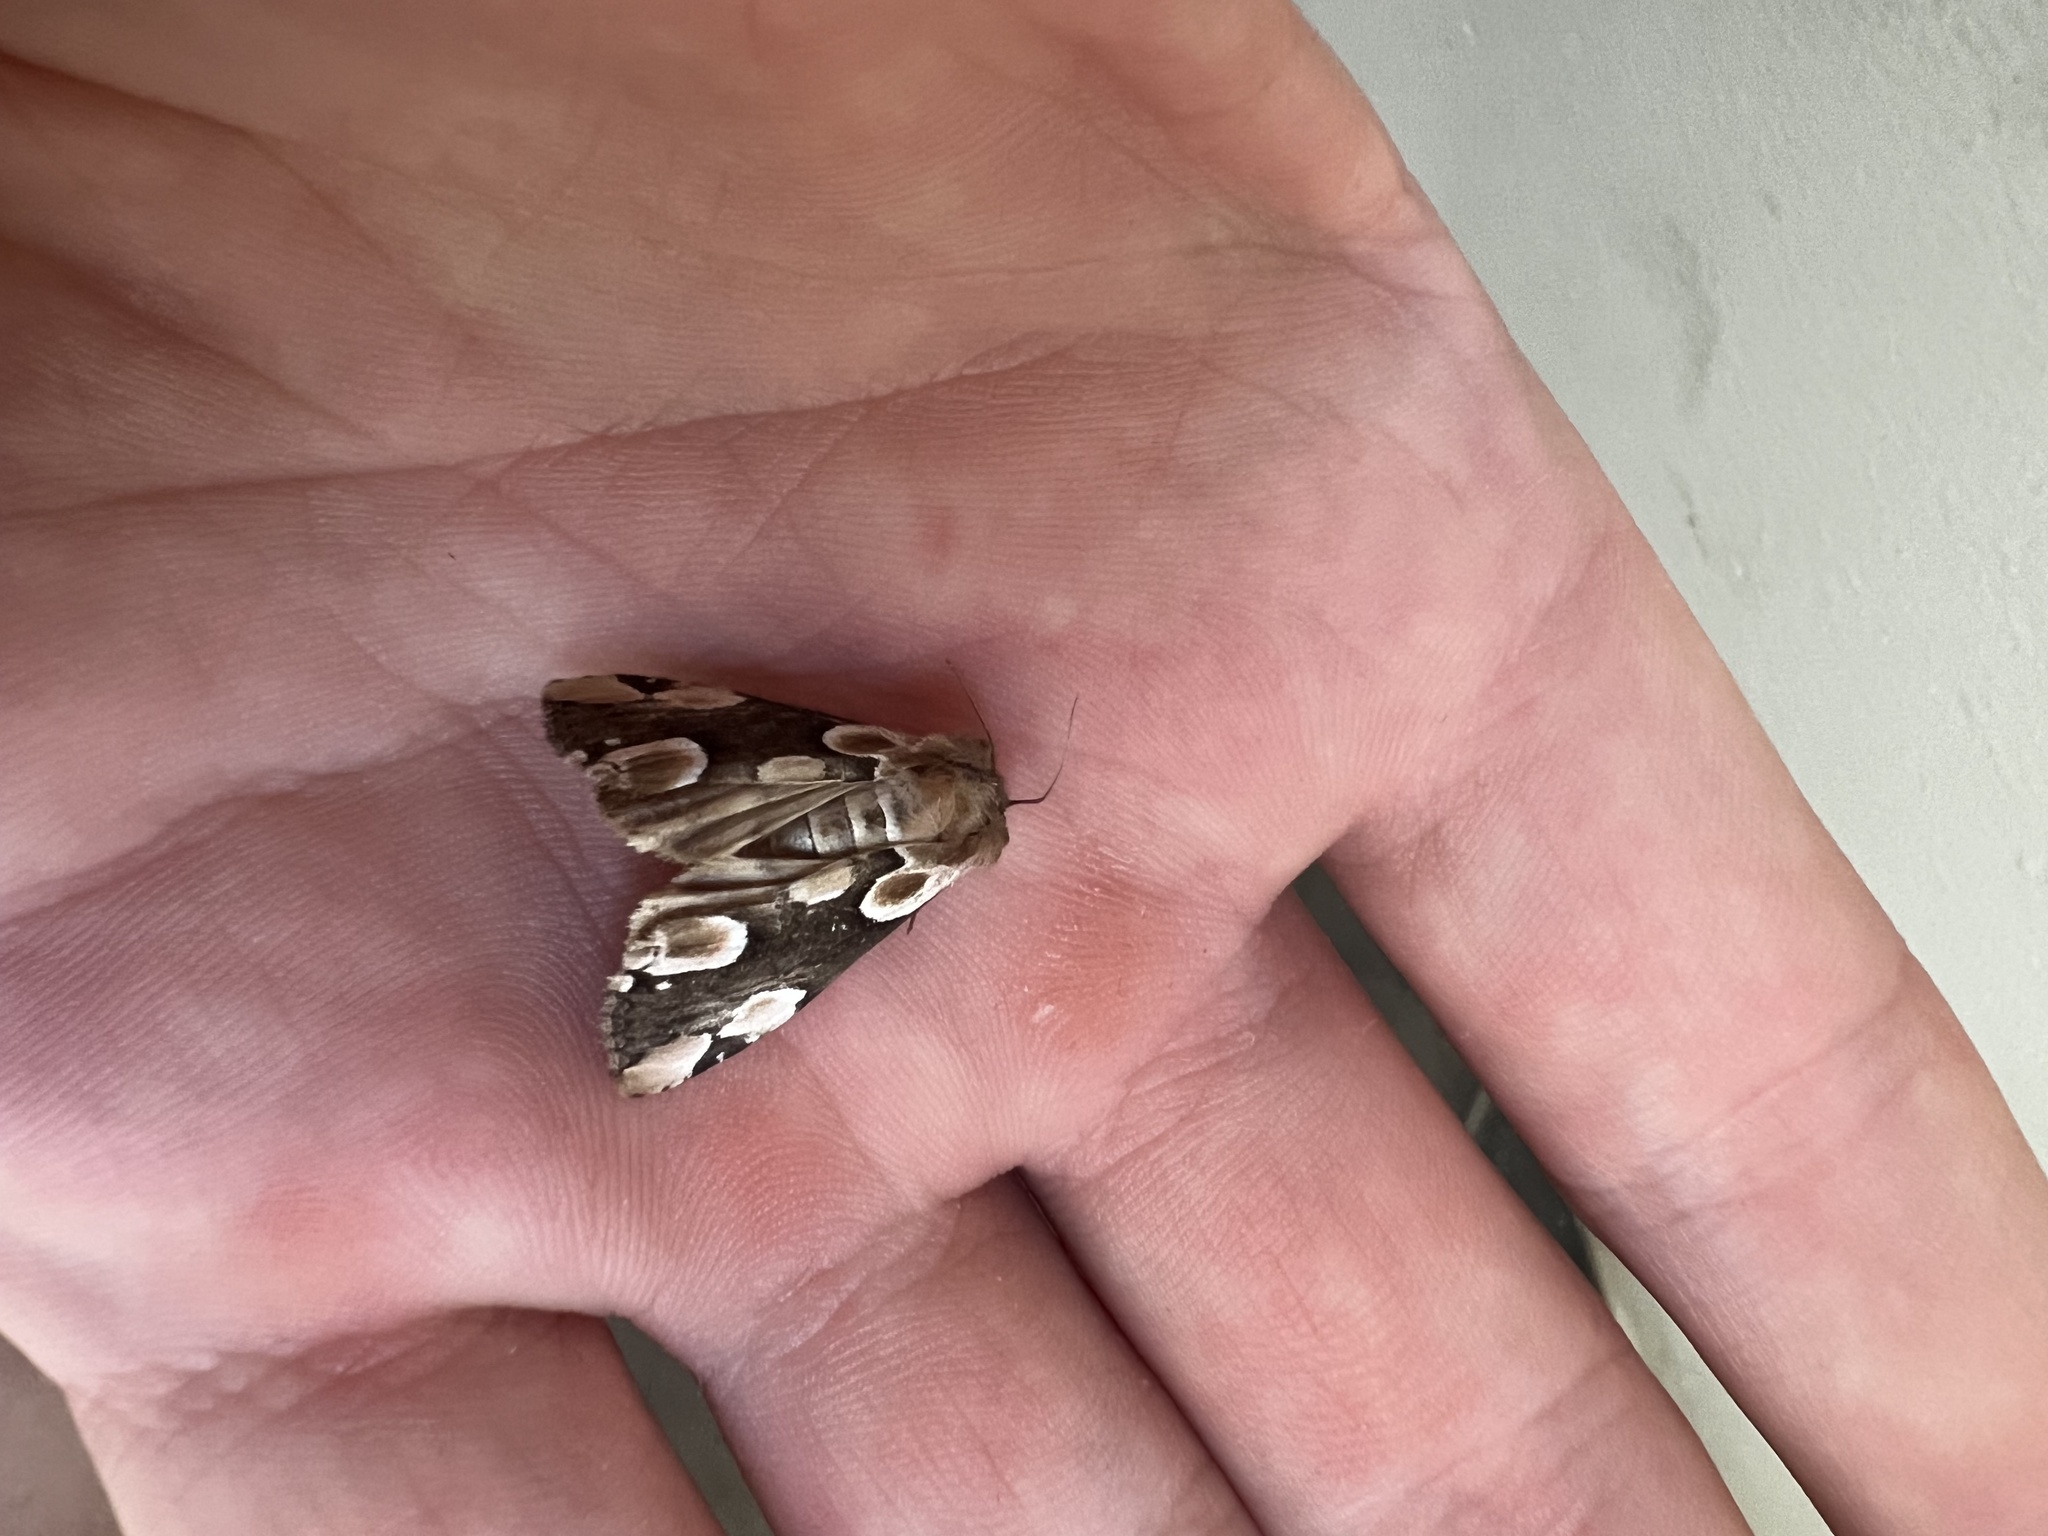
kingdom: Animalia
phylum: Arthropoda
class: Insecta
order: Lepidoptera
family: Drepanidae
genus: Thyatira
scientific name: Thyatira batis
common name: Peach blossom
